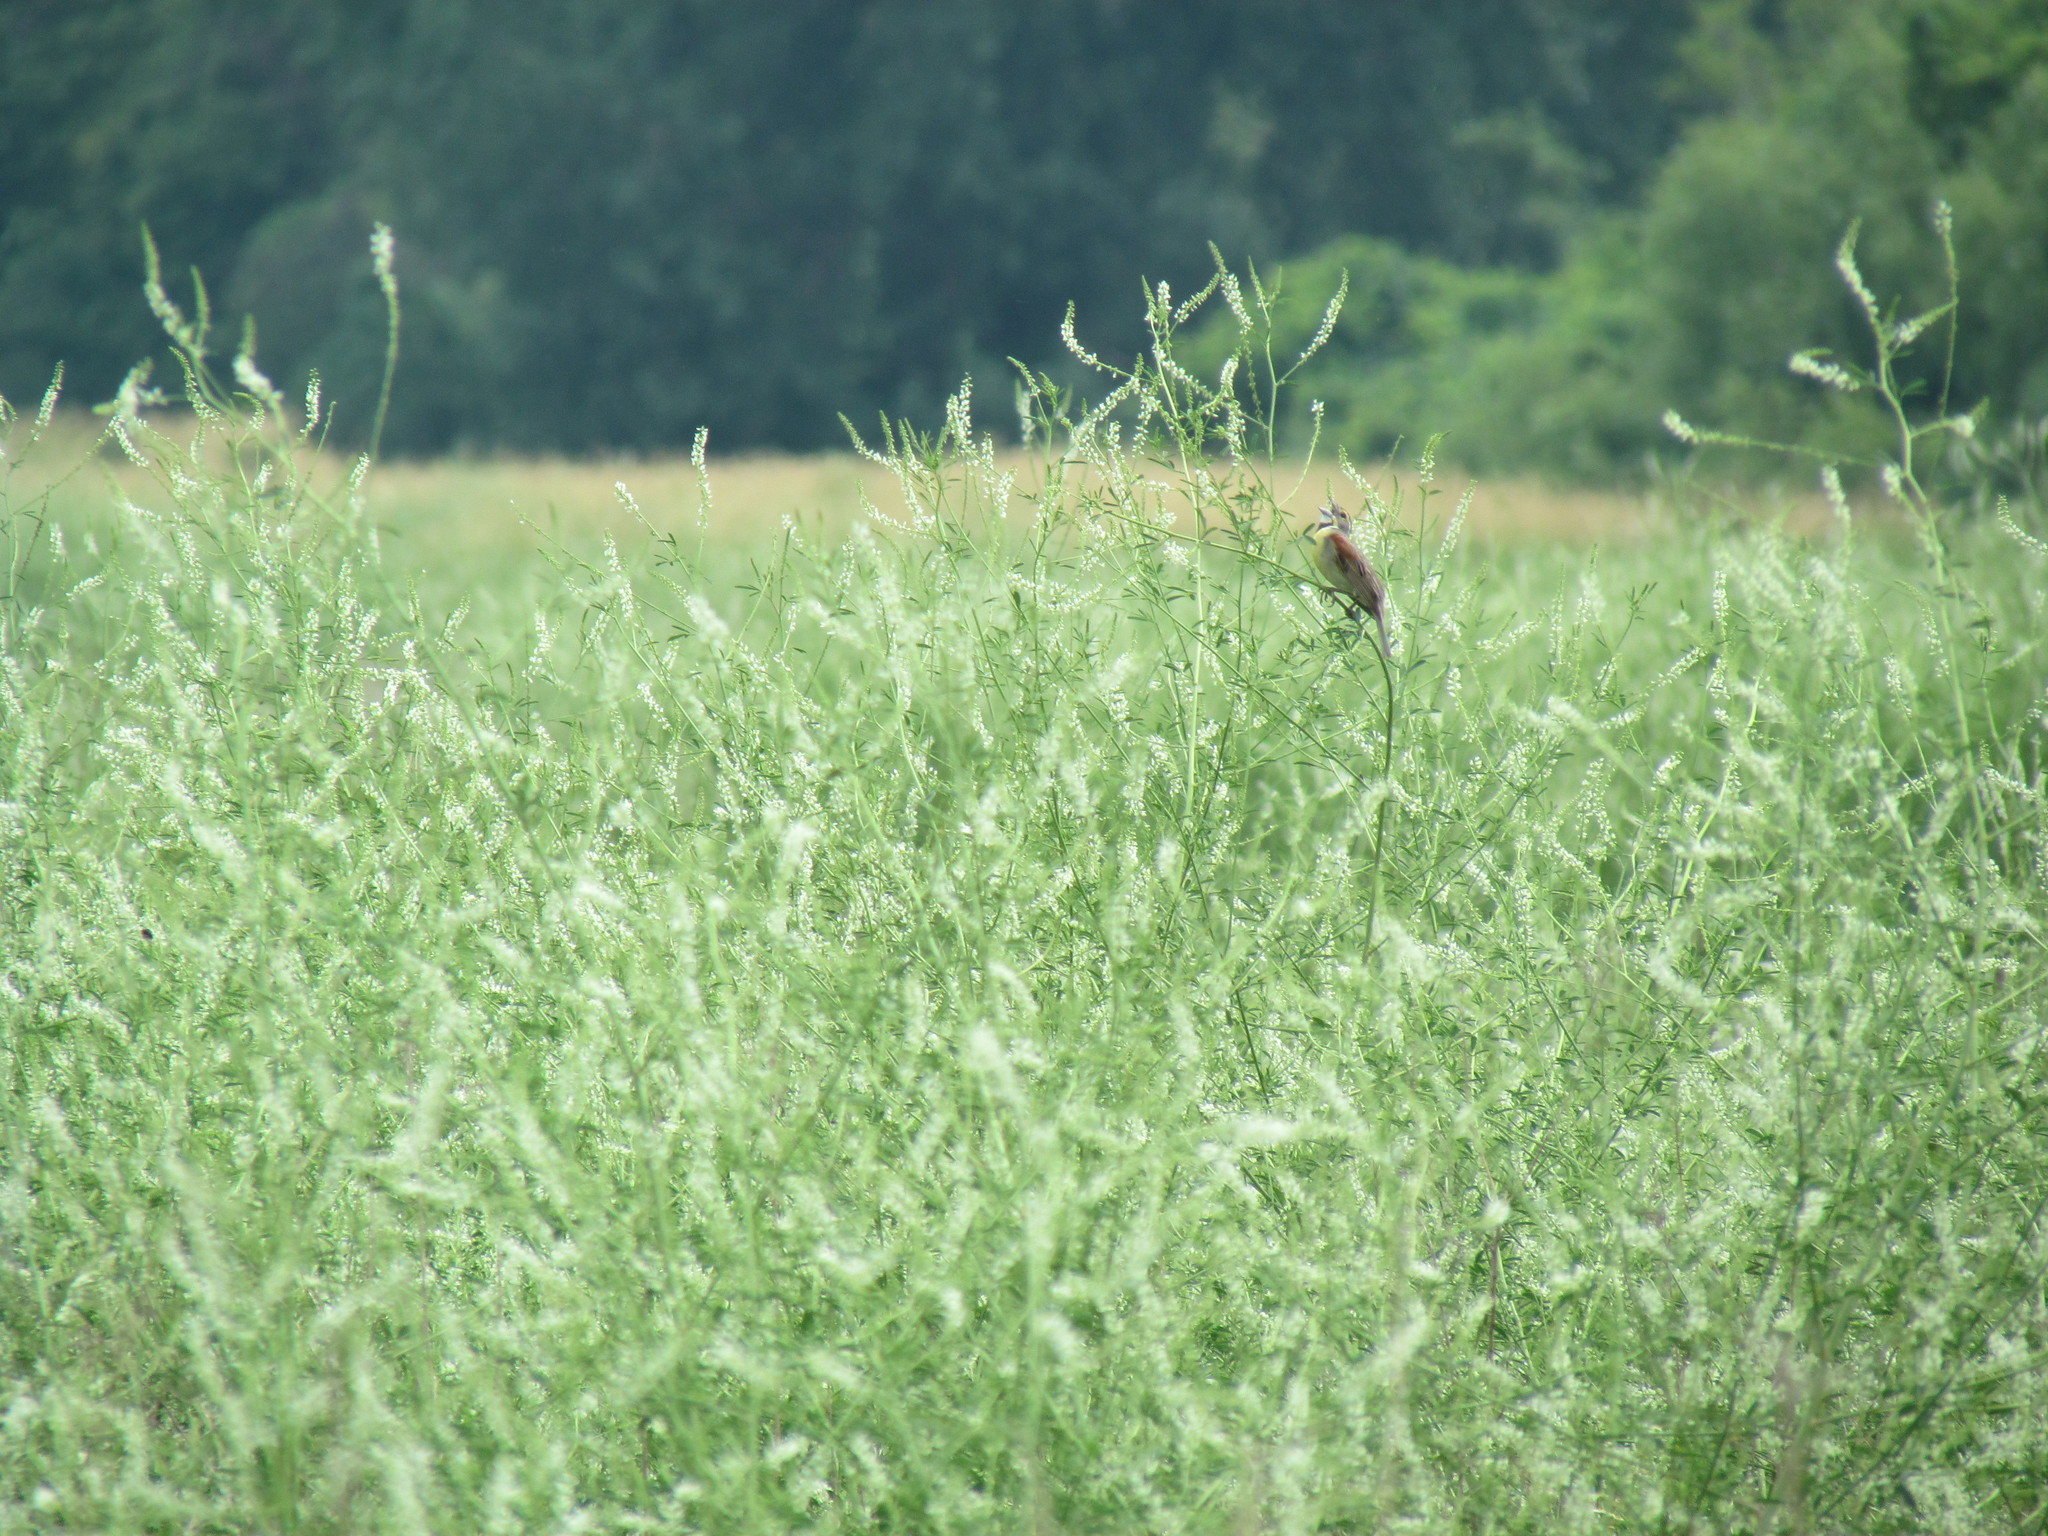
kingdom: Animalia
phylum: Chordata
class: Aves
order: Passeriformes
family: Cardinalidae
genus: Spiza
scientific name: Spiza americana
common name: Dickcissel
